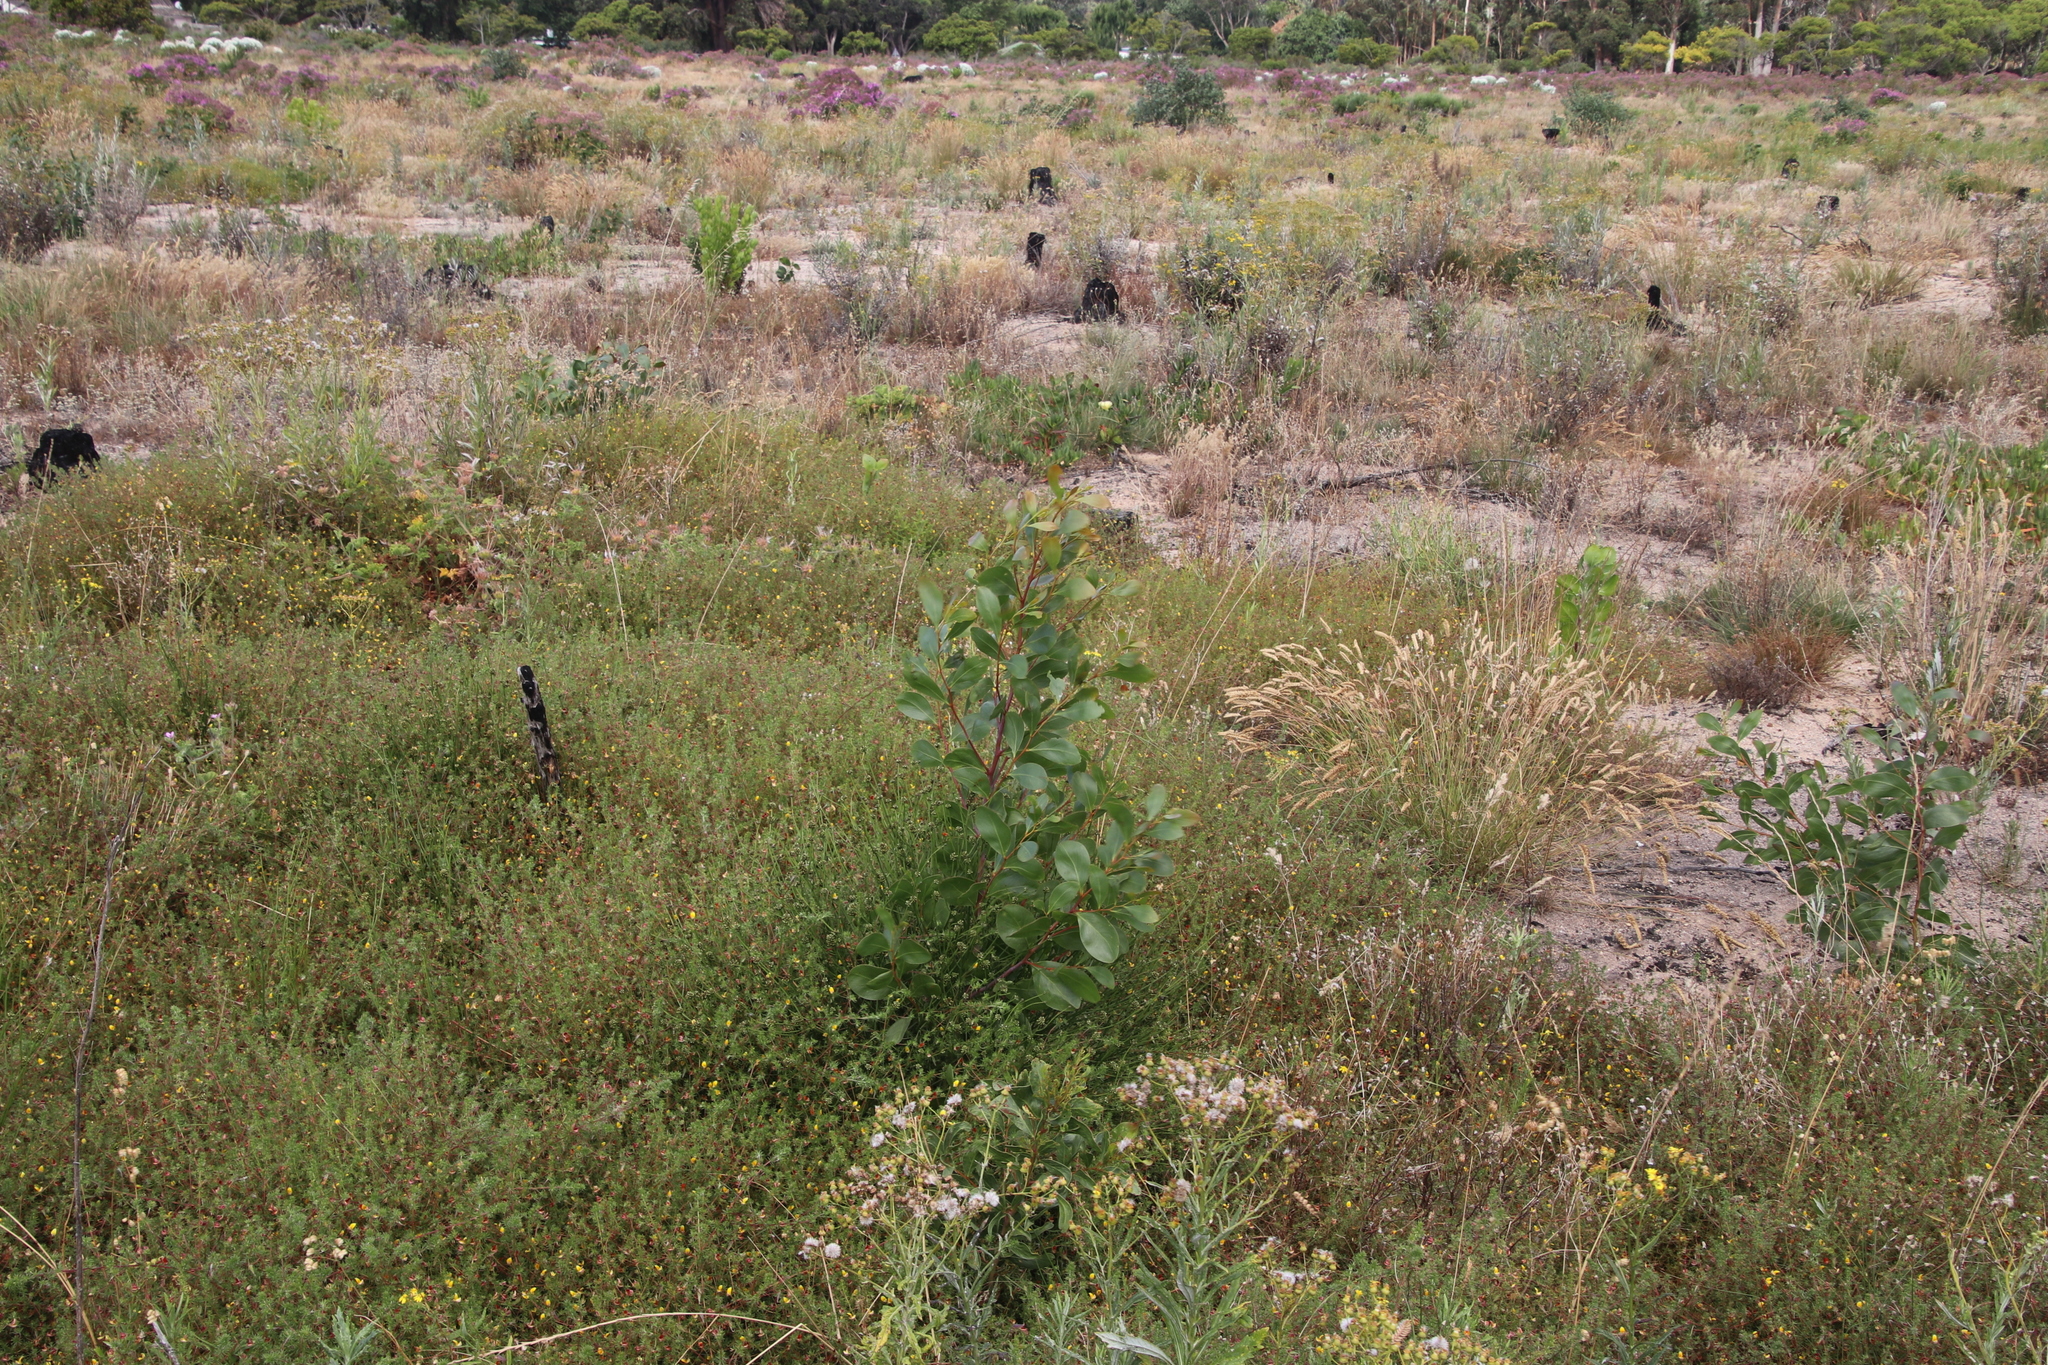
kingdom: Plantae
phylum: Tracheophyta
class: Magnoliopsida
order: Fabales
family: Fabaceae
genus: Acacia
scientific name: Acacia pycnantha
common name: Golden wattle
